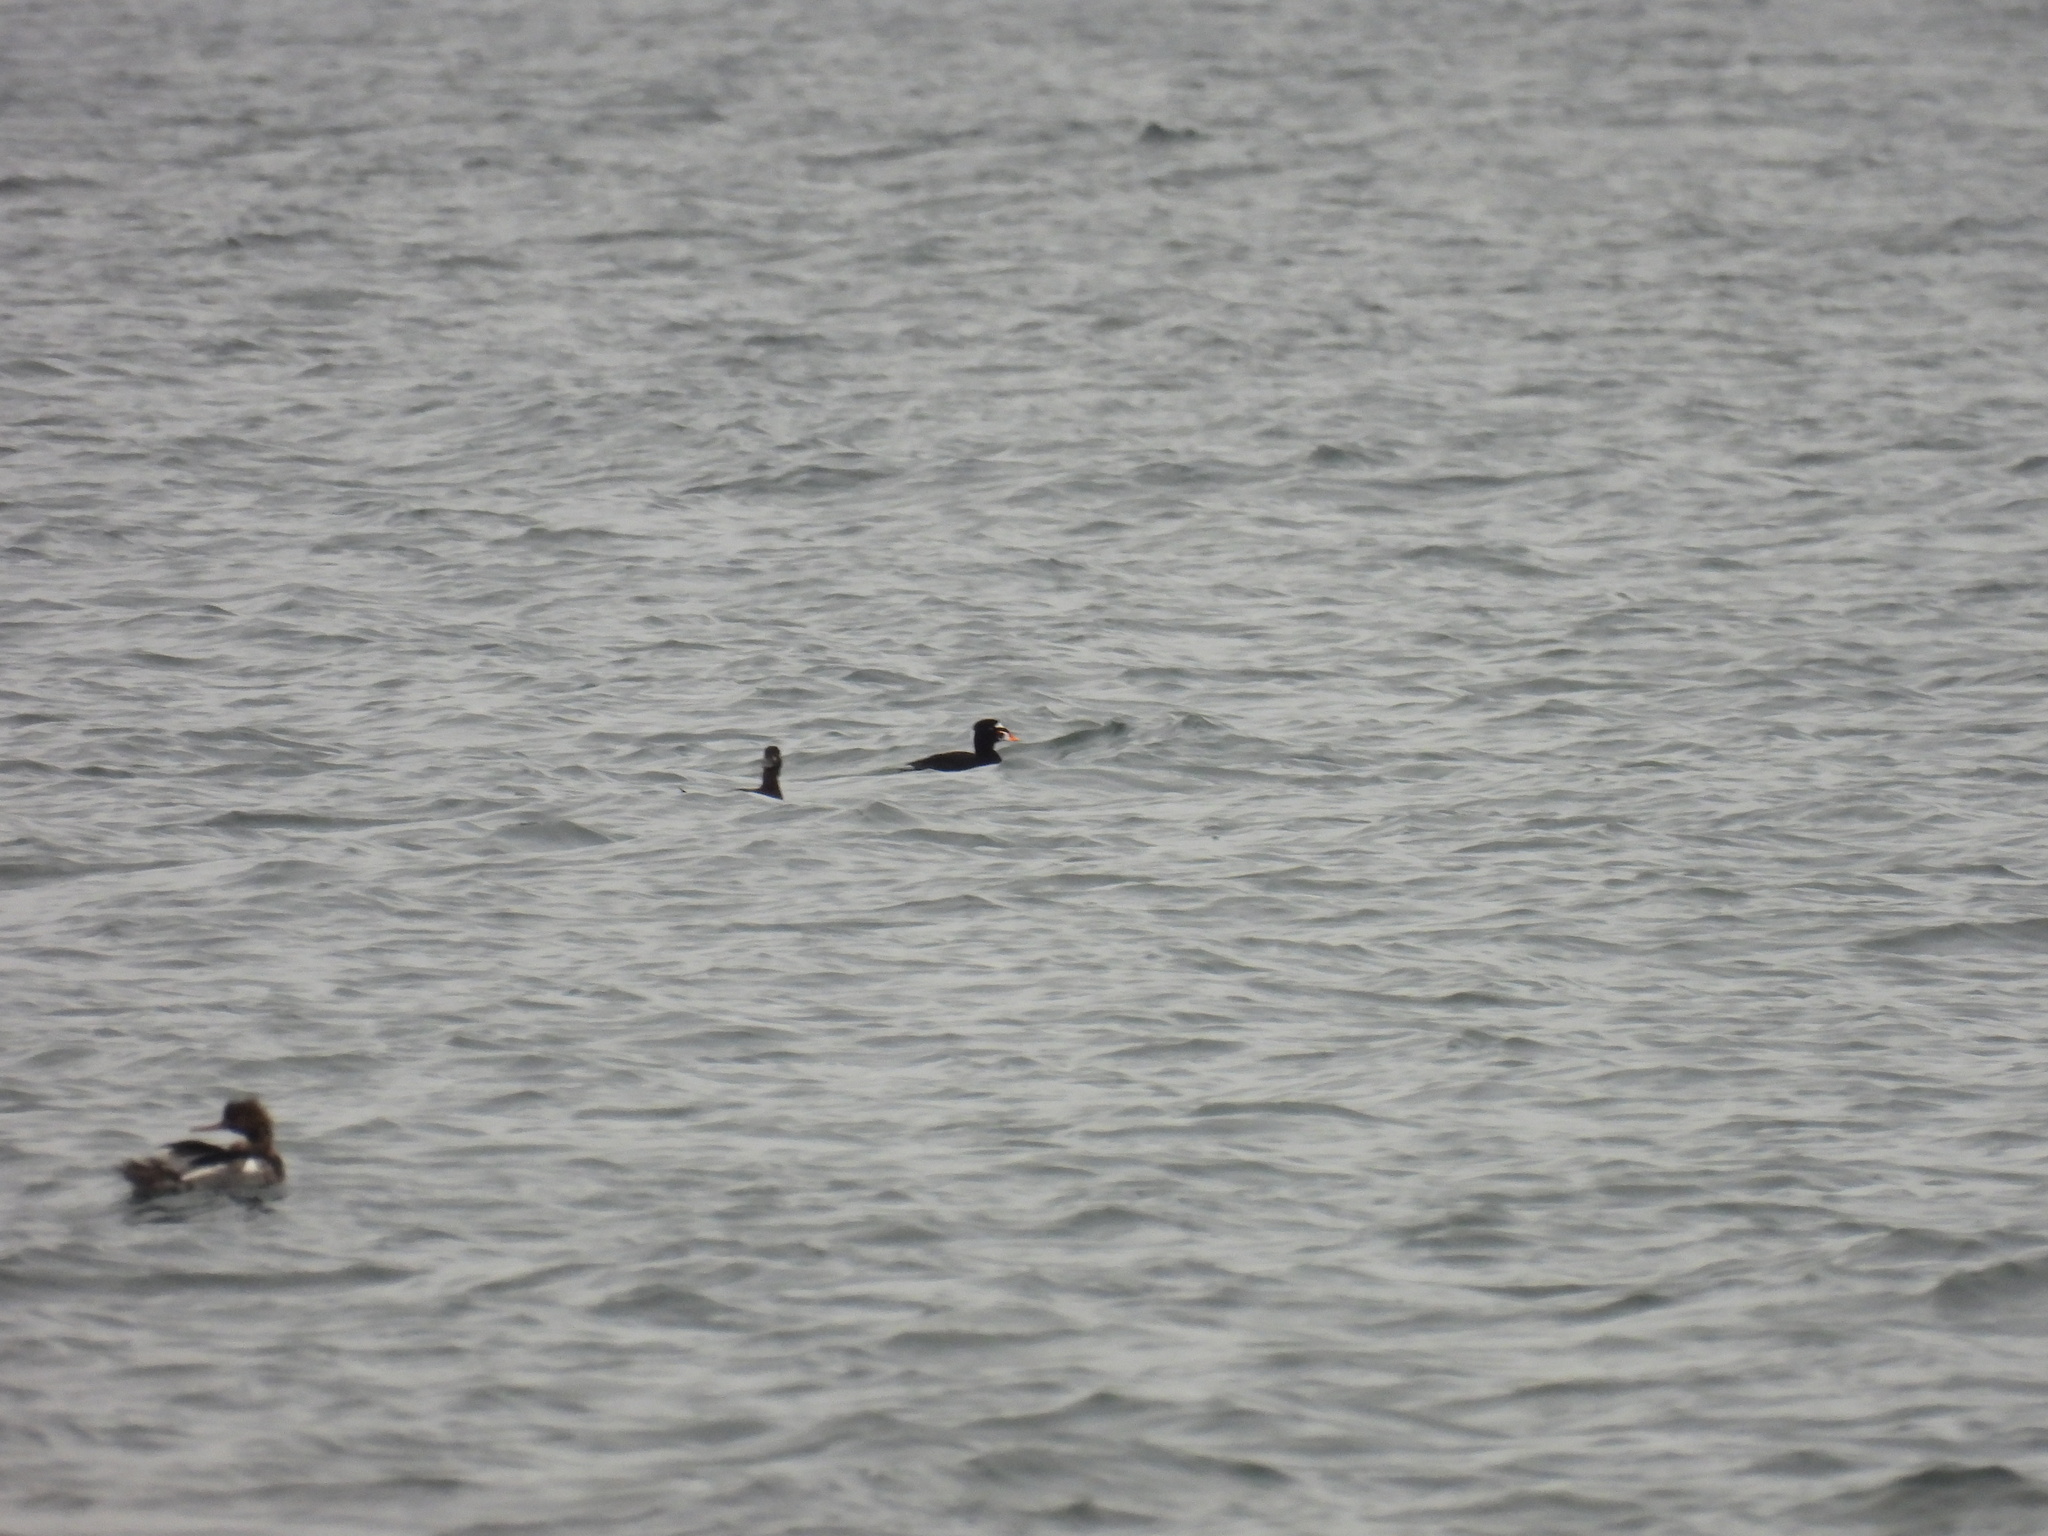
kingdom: Animalia
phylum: Chordata
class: Aves
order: Anseriformes
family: Anatidae
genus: Melanitta
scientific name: Melanitta perspicillata
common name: Surf scoter
